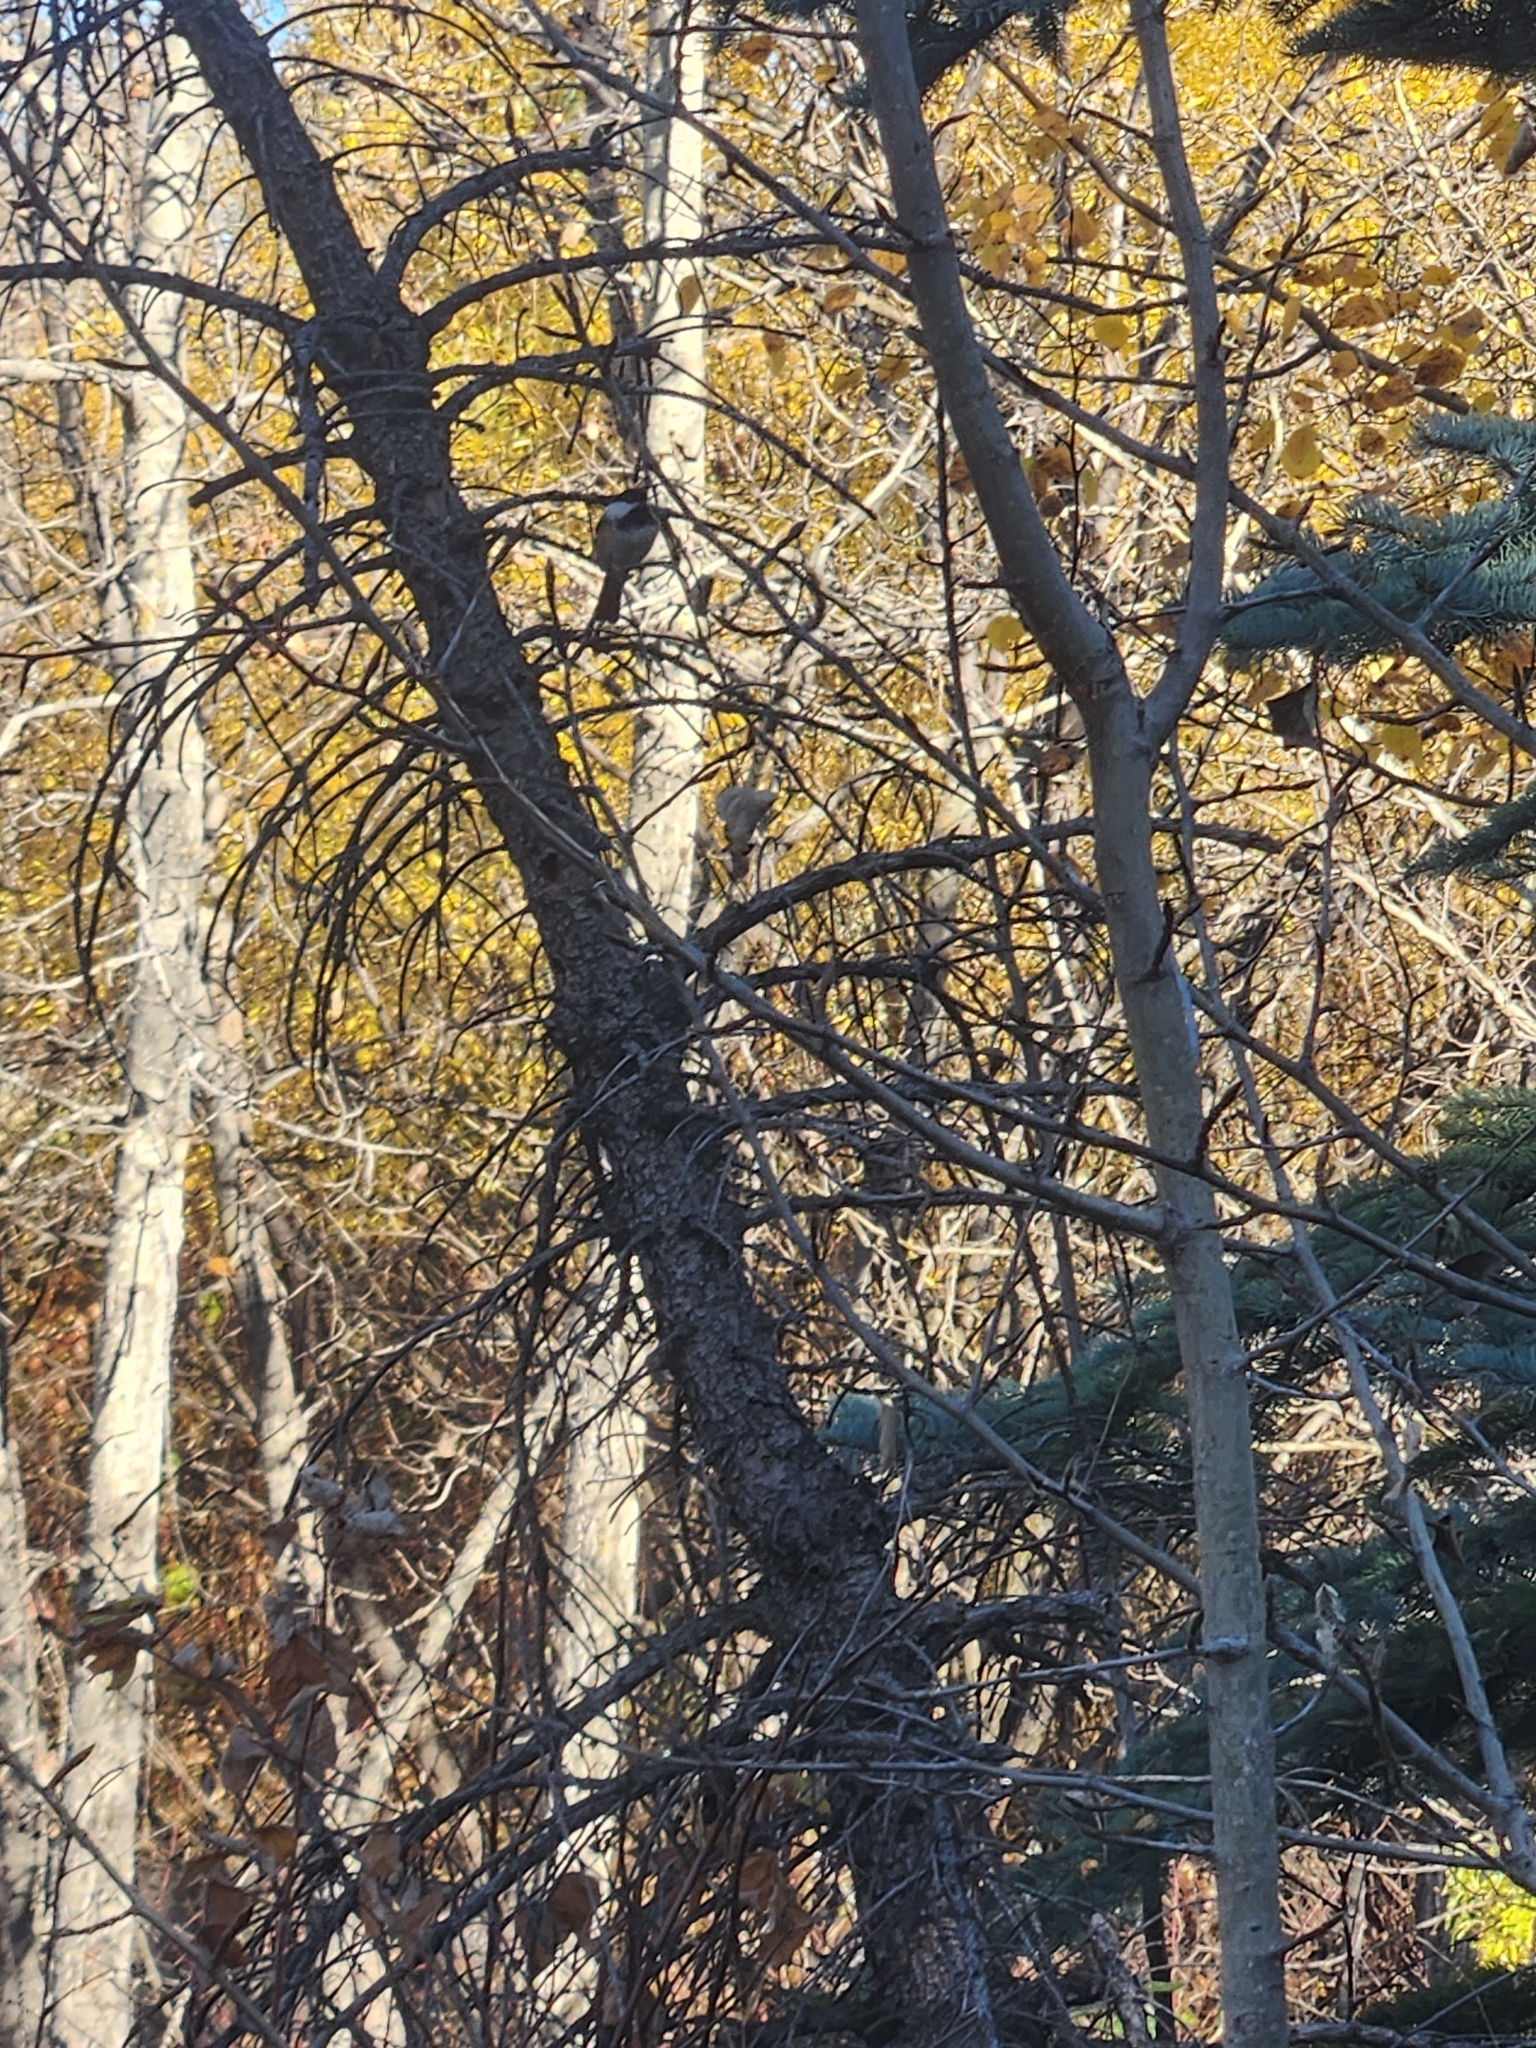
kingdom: Animalia
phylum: Chordata
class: Aves
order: Passeriformes
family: Paridae
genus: Poecile
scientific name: Poecile atricapillus
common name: Black-capped chickadee
